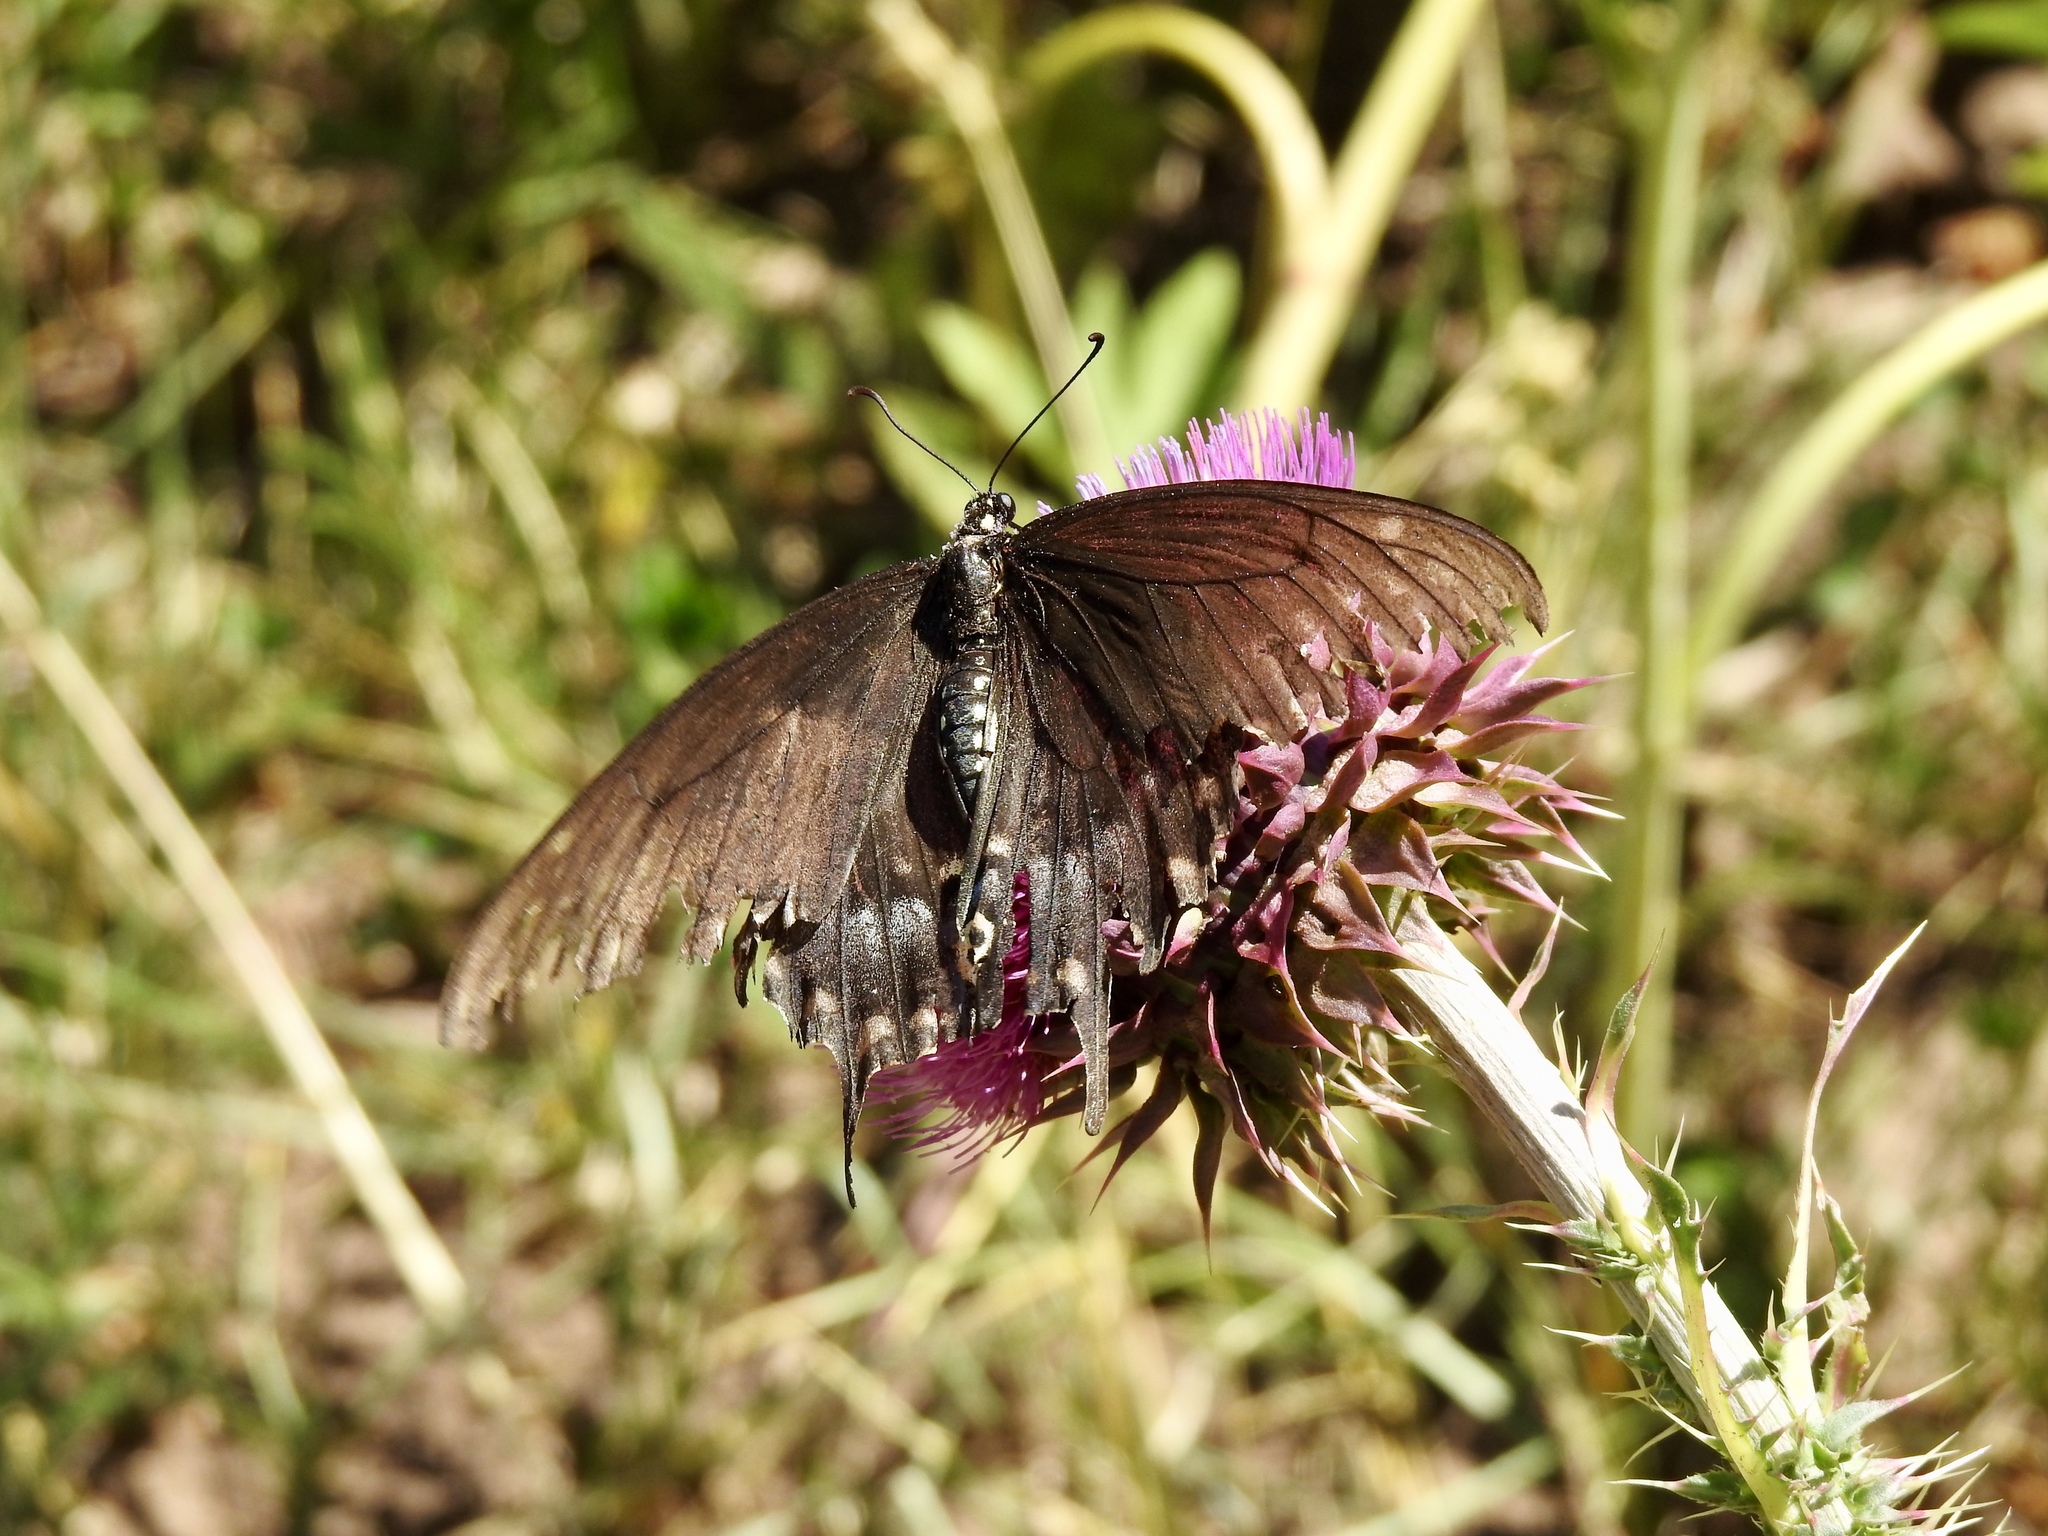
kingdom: Animalia
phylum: Arthropoda
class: Insecta
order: Lepidoptera
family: Papilionidae
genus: Papilio
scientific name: Papilio polyxenes
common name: Black swallowtail
